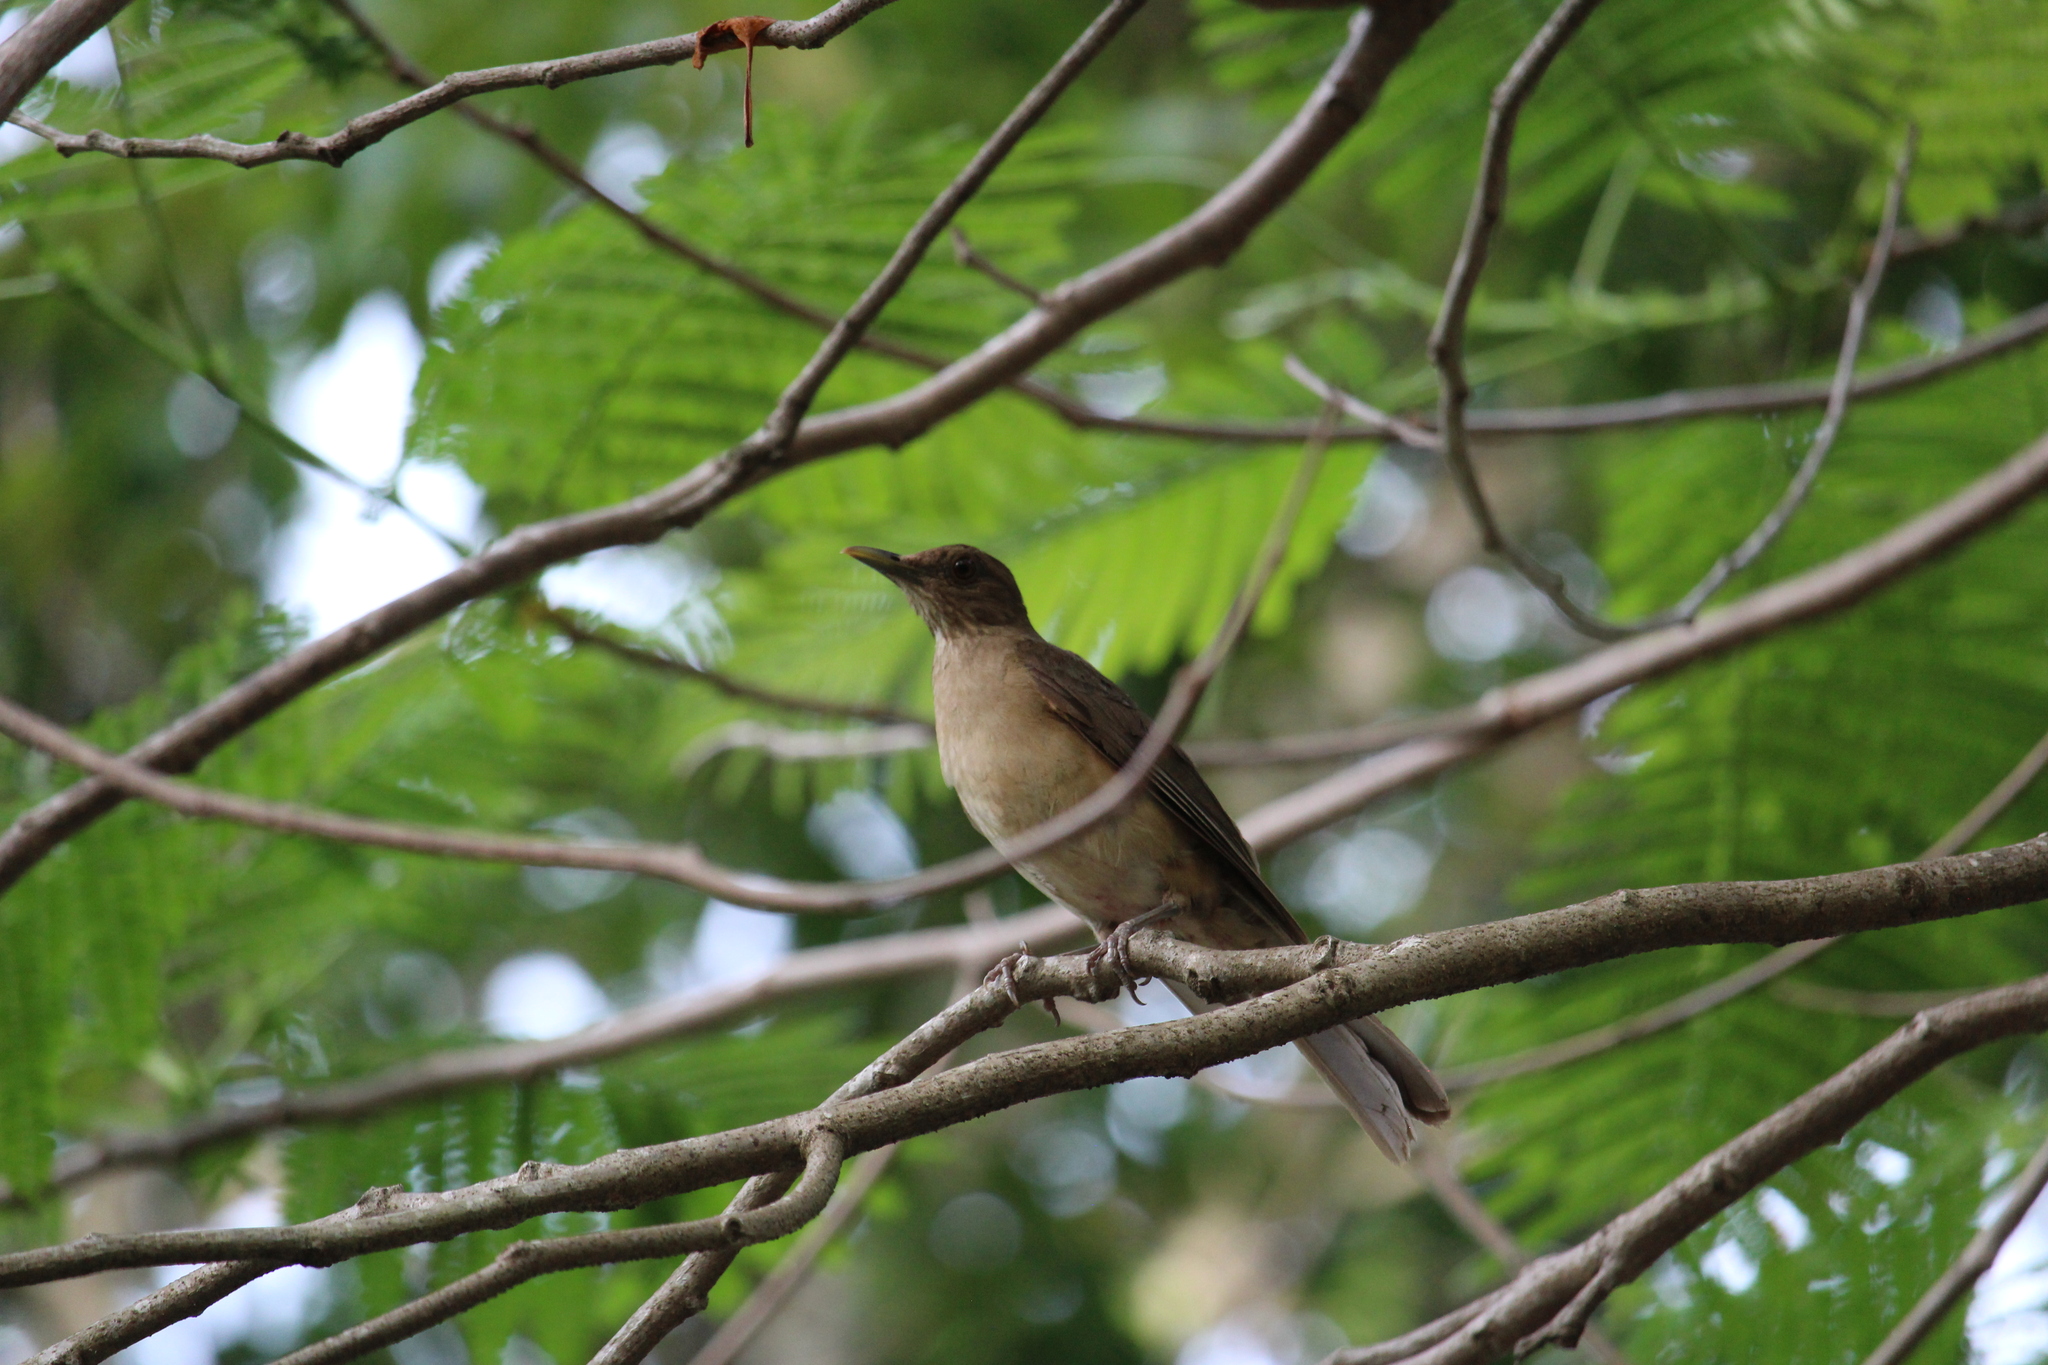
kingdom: Animalia
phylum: Chordata
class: Aves
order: Passeriformes
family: Turdidae
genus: Turdus
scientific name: Turdus grayi
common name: Clay-colored thrush
